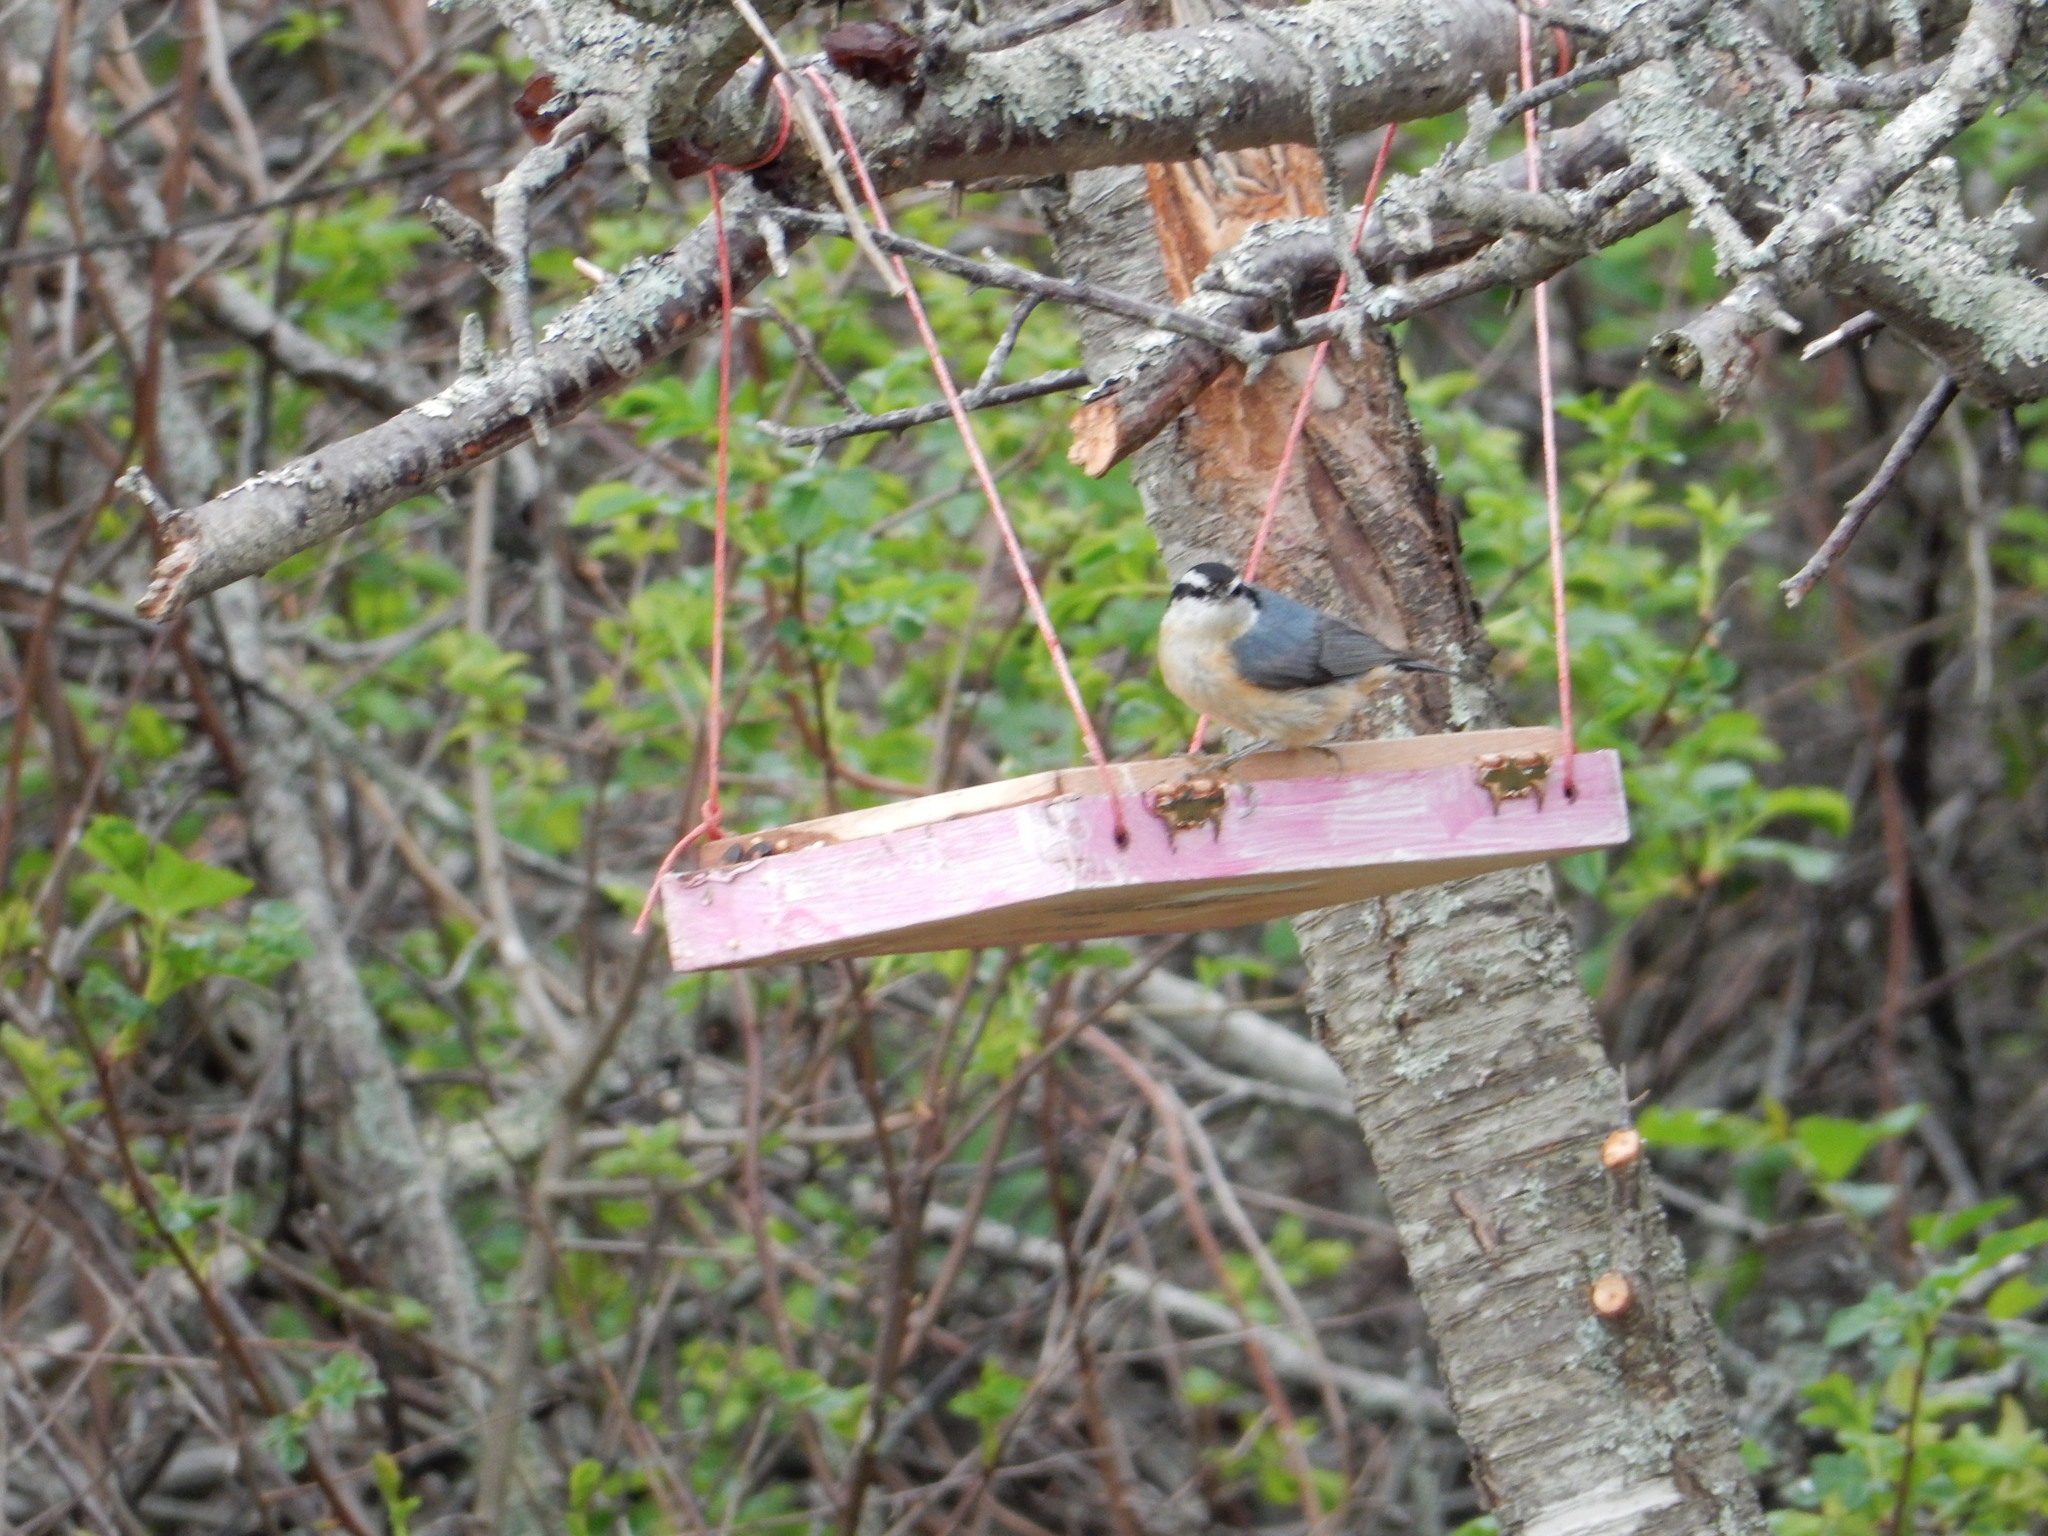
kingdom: Animalia
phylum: Chordata
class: Aves
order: Passeriformes
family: Sittidae
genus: Sitta
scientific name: Sitta canadensis
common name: Red-breasted nuthatch
